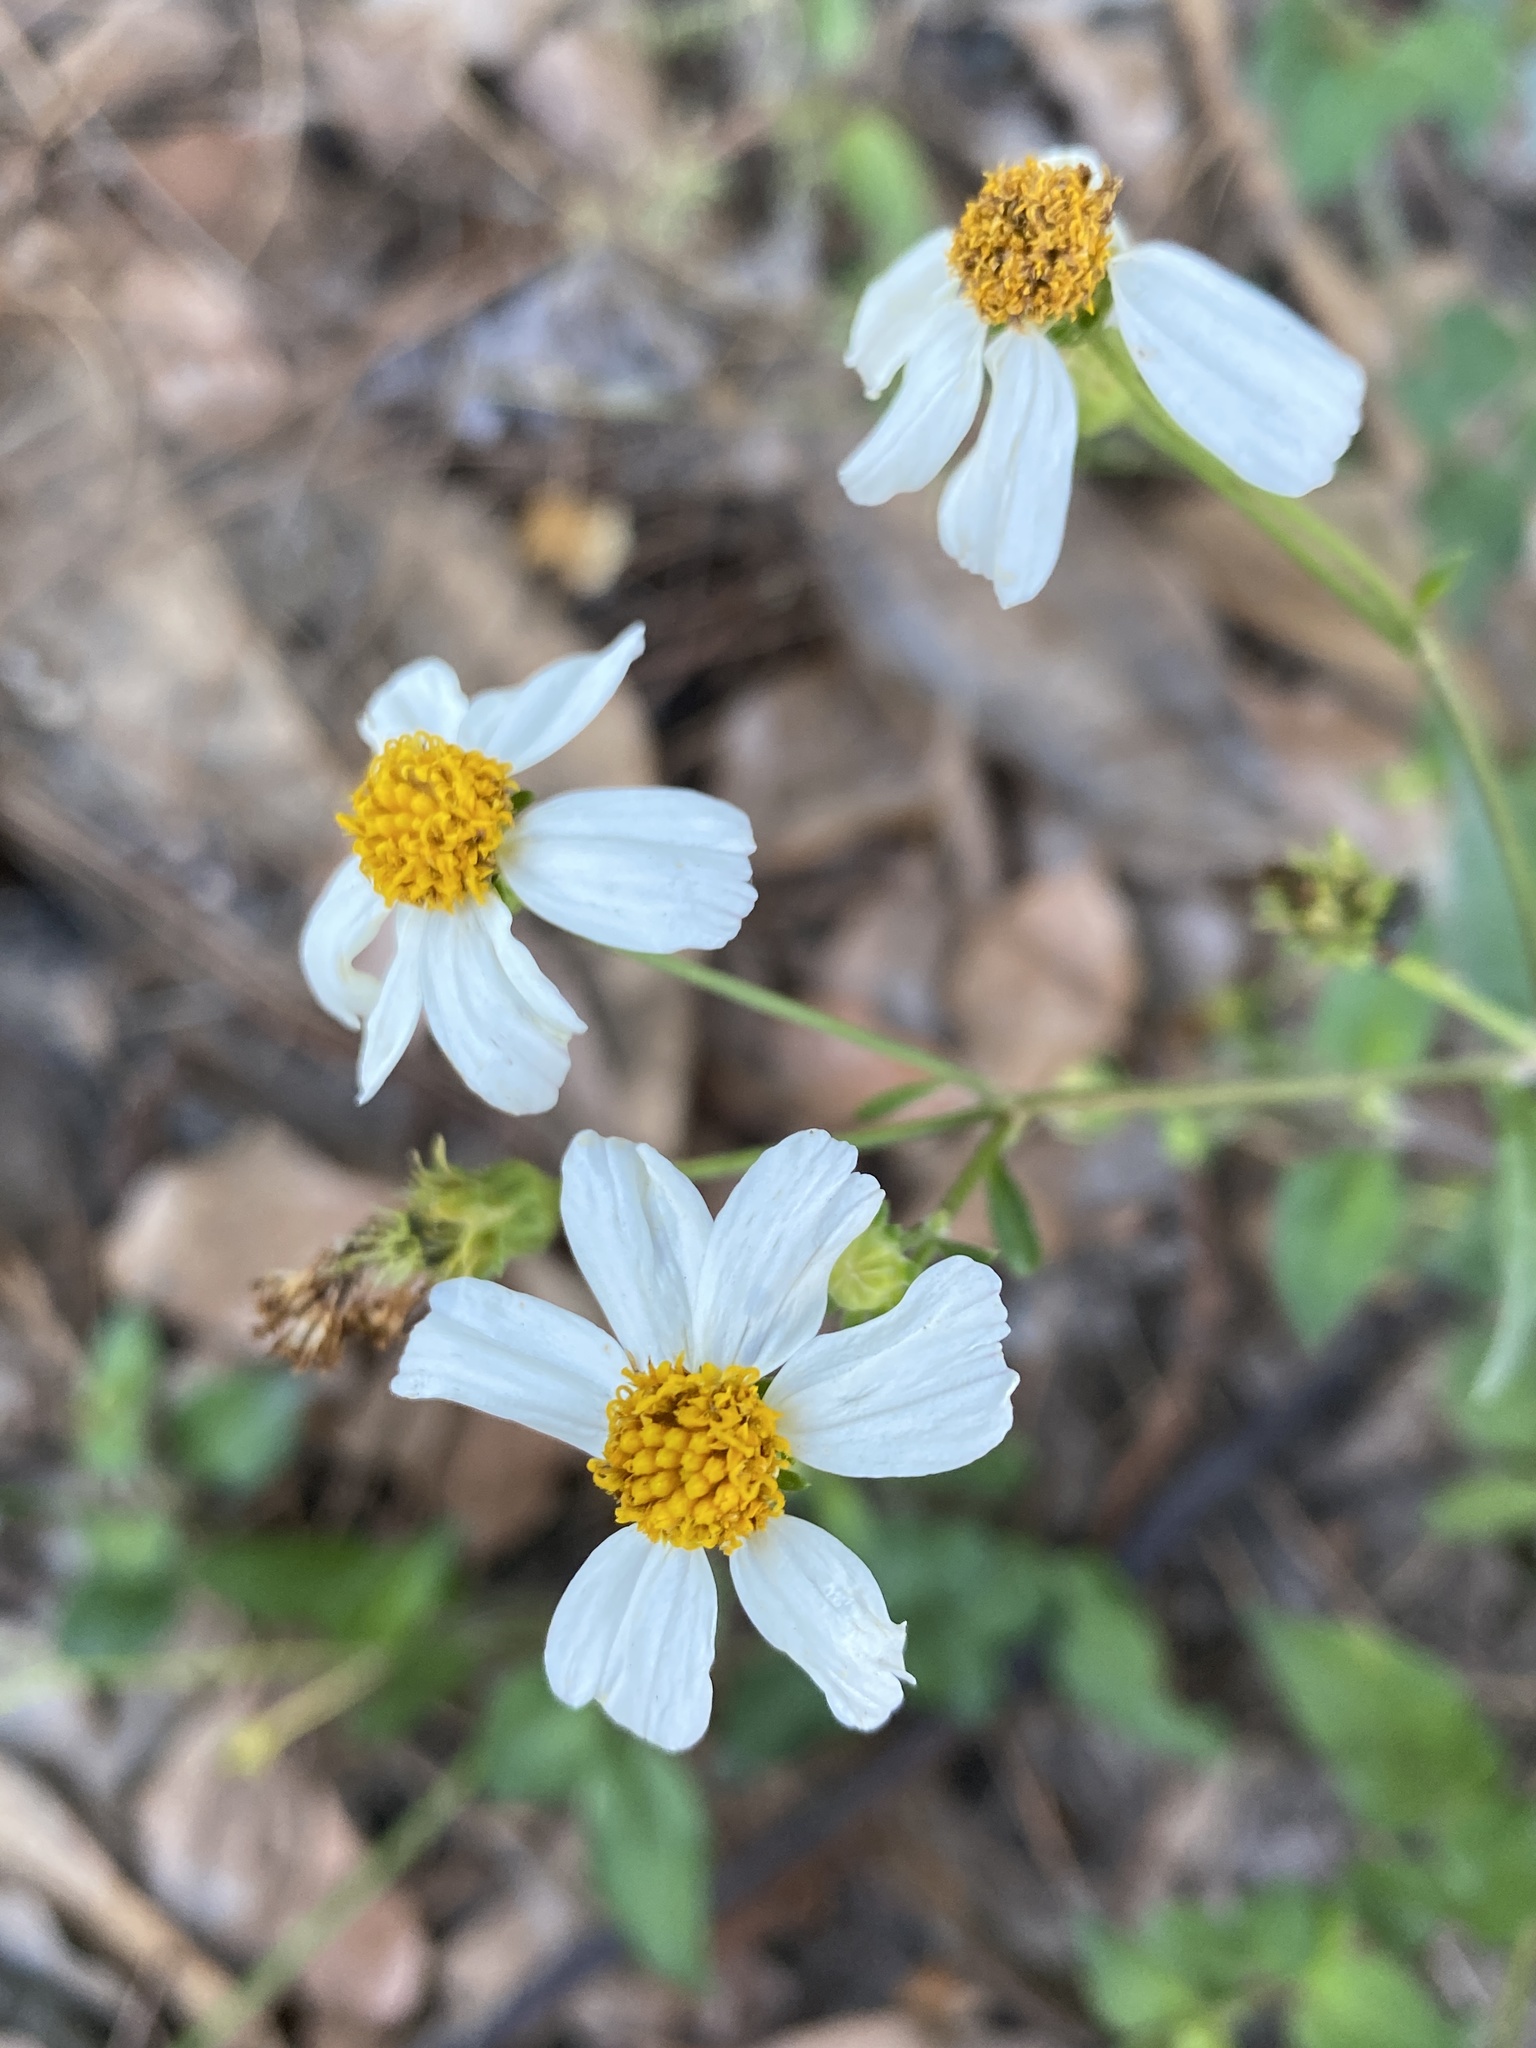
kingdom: Plantae
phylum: Tracheophyta
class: Magnoliopsida
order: Asterales
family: Asteraceae
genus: Bidens
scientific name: Bidens alba
